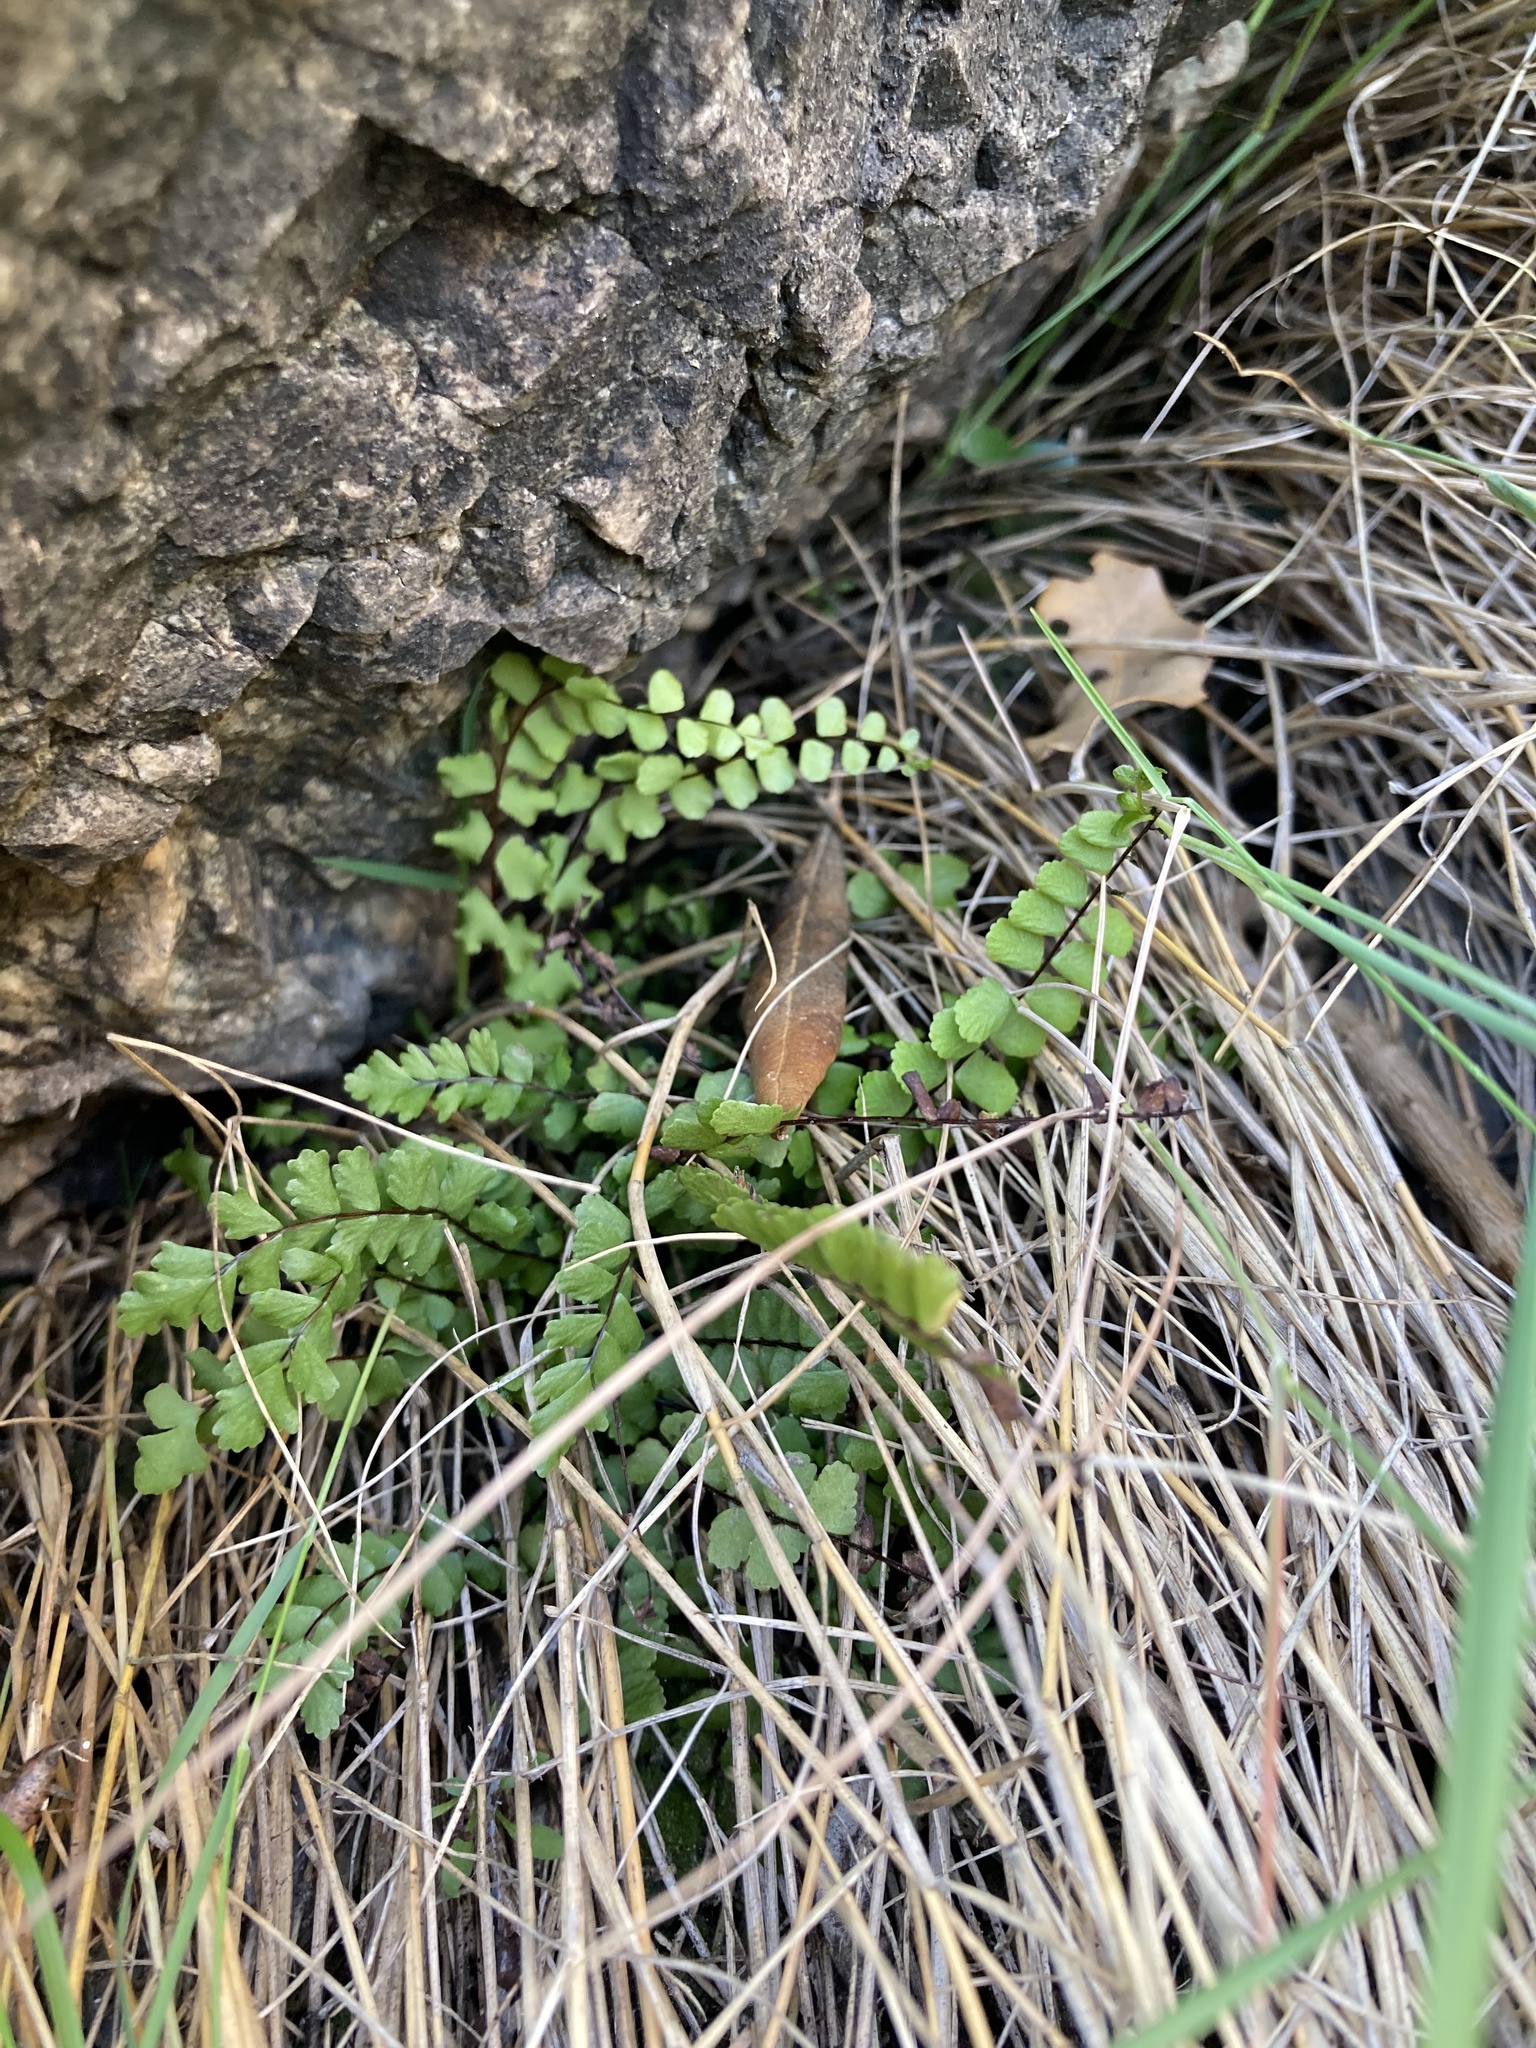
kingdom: Plantae
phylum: Tracheophyta
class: Polypodiopsida
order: Polypodiales
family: Aspleniaceae
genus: Asplenium
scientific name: Asplenium trichomanes
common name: Maidenhair spleenwort
